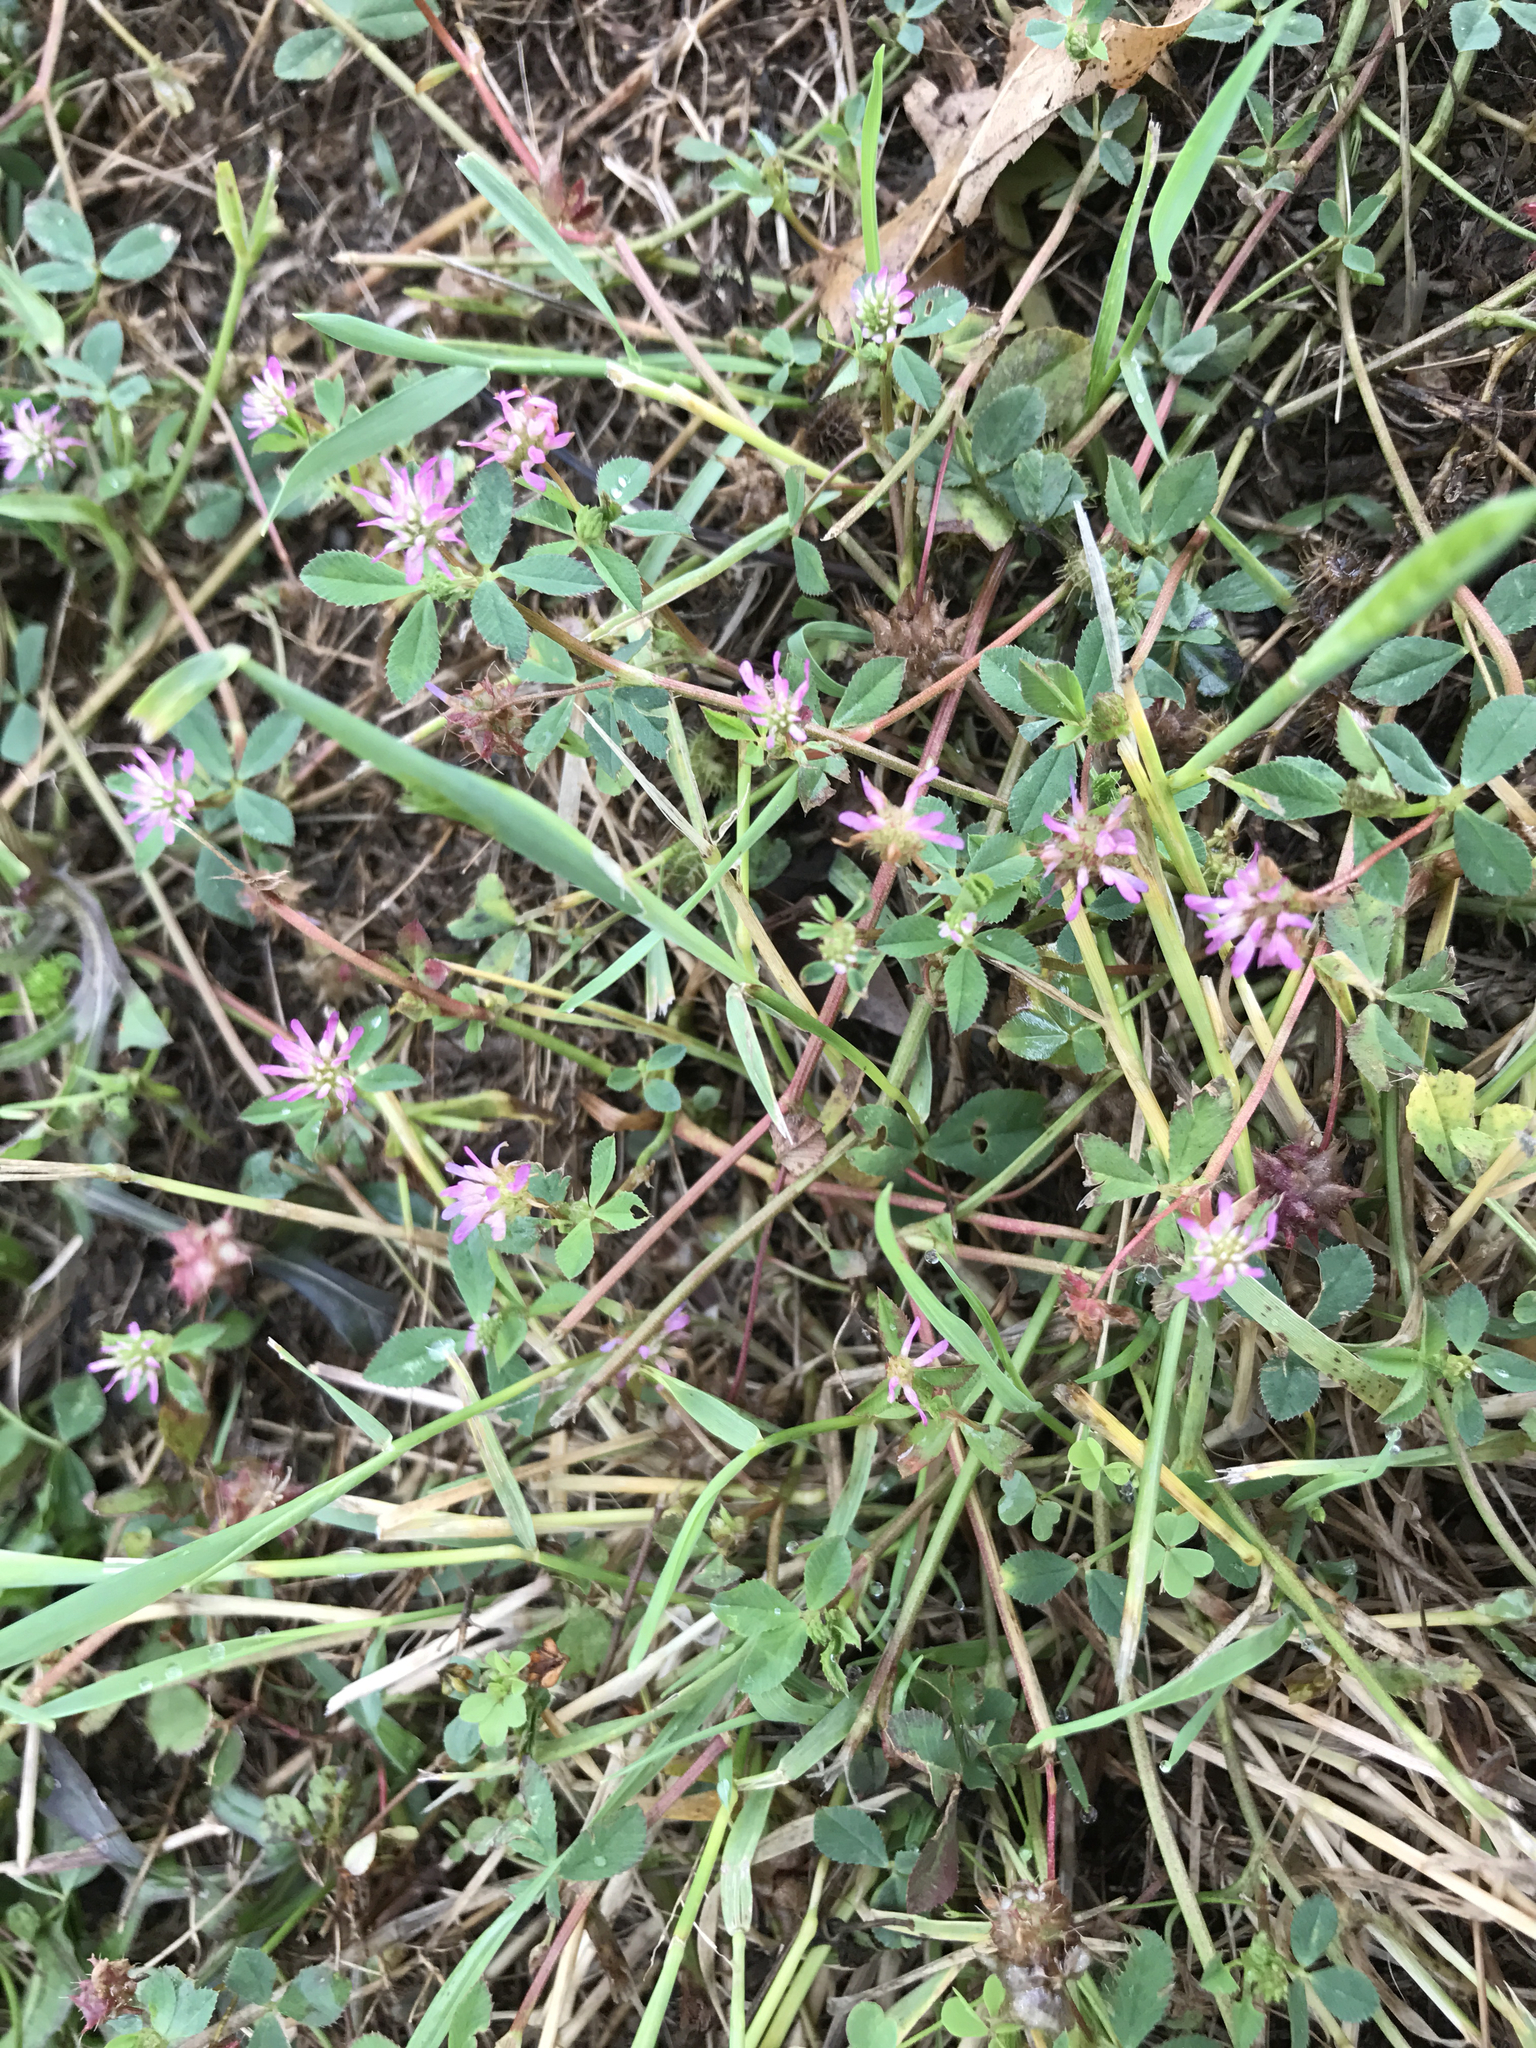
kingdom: Plantae
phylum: Tracheophyta
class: Magnoliopsida
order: Fabales
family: Fabaceae
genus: Trifolium
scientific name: Trifolium resupinatum
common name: Reversed clover
